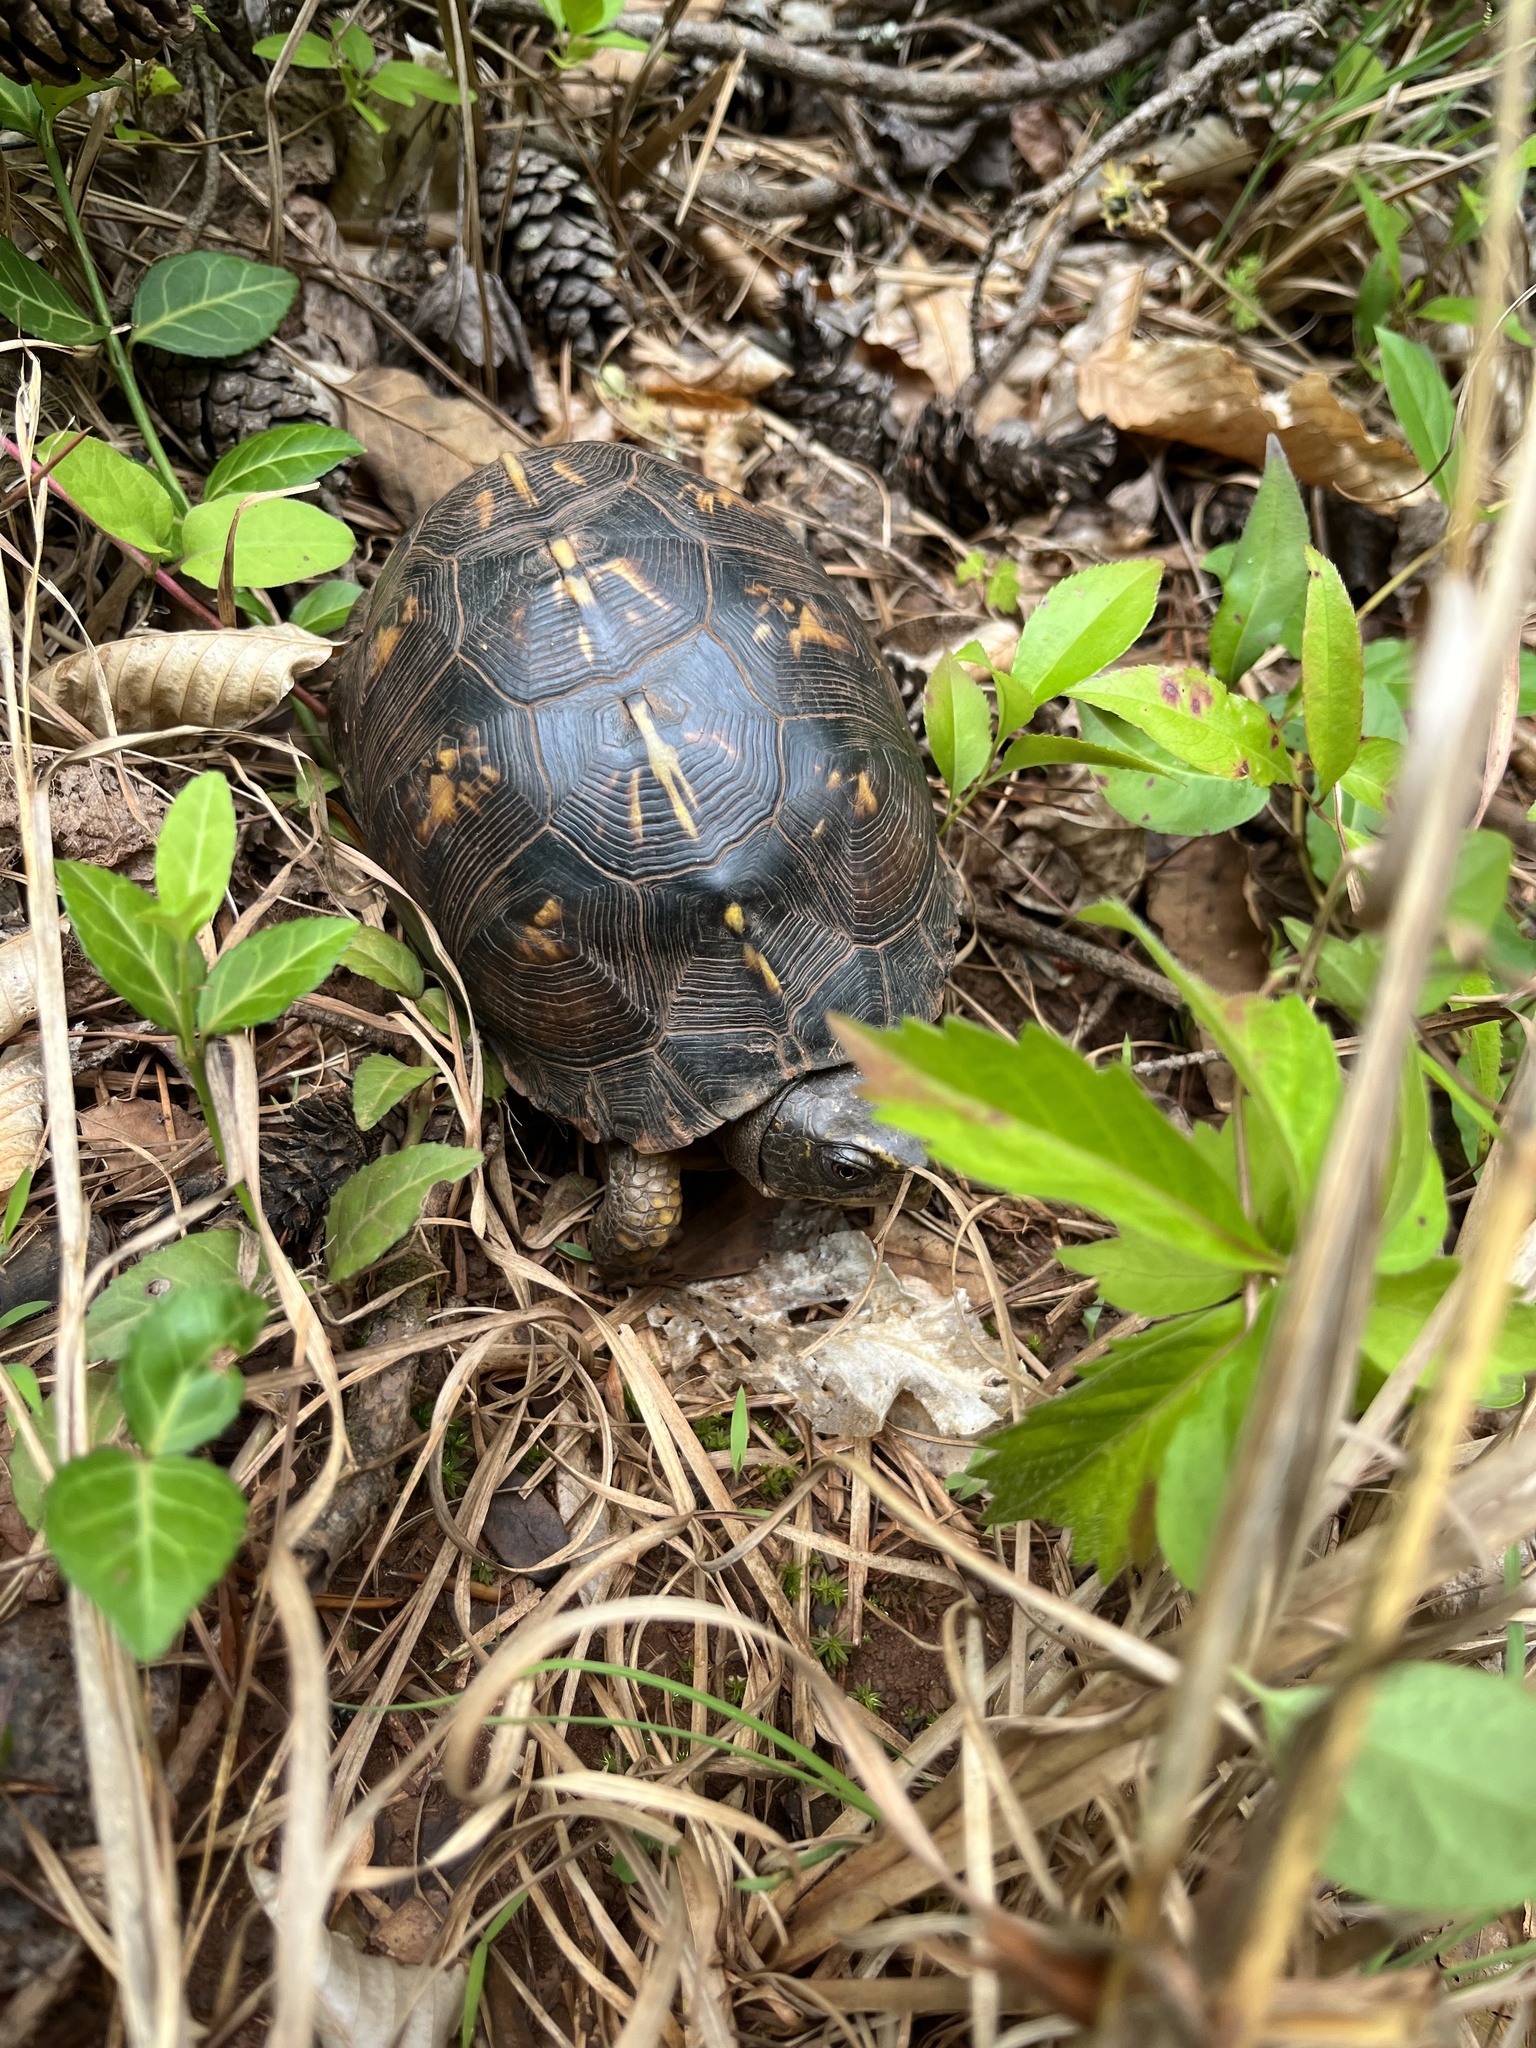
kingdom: Animalia
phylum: Chordata
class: Testudines
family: Emydidae
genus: Terrapene
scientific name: Terrapene carolina
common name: Common box turtle
